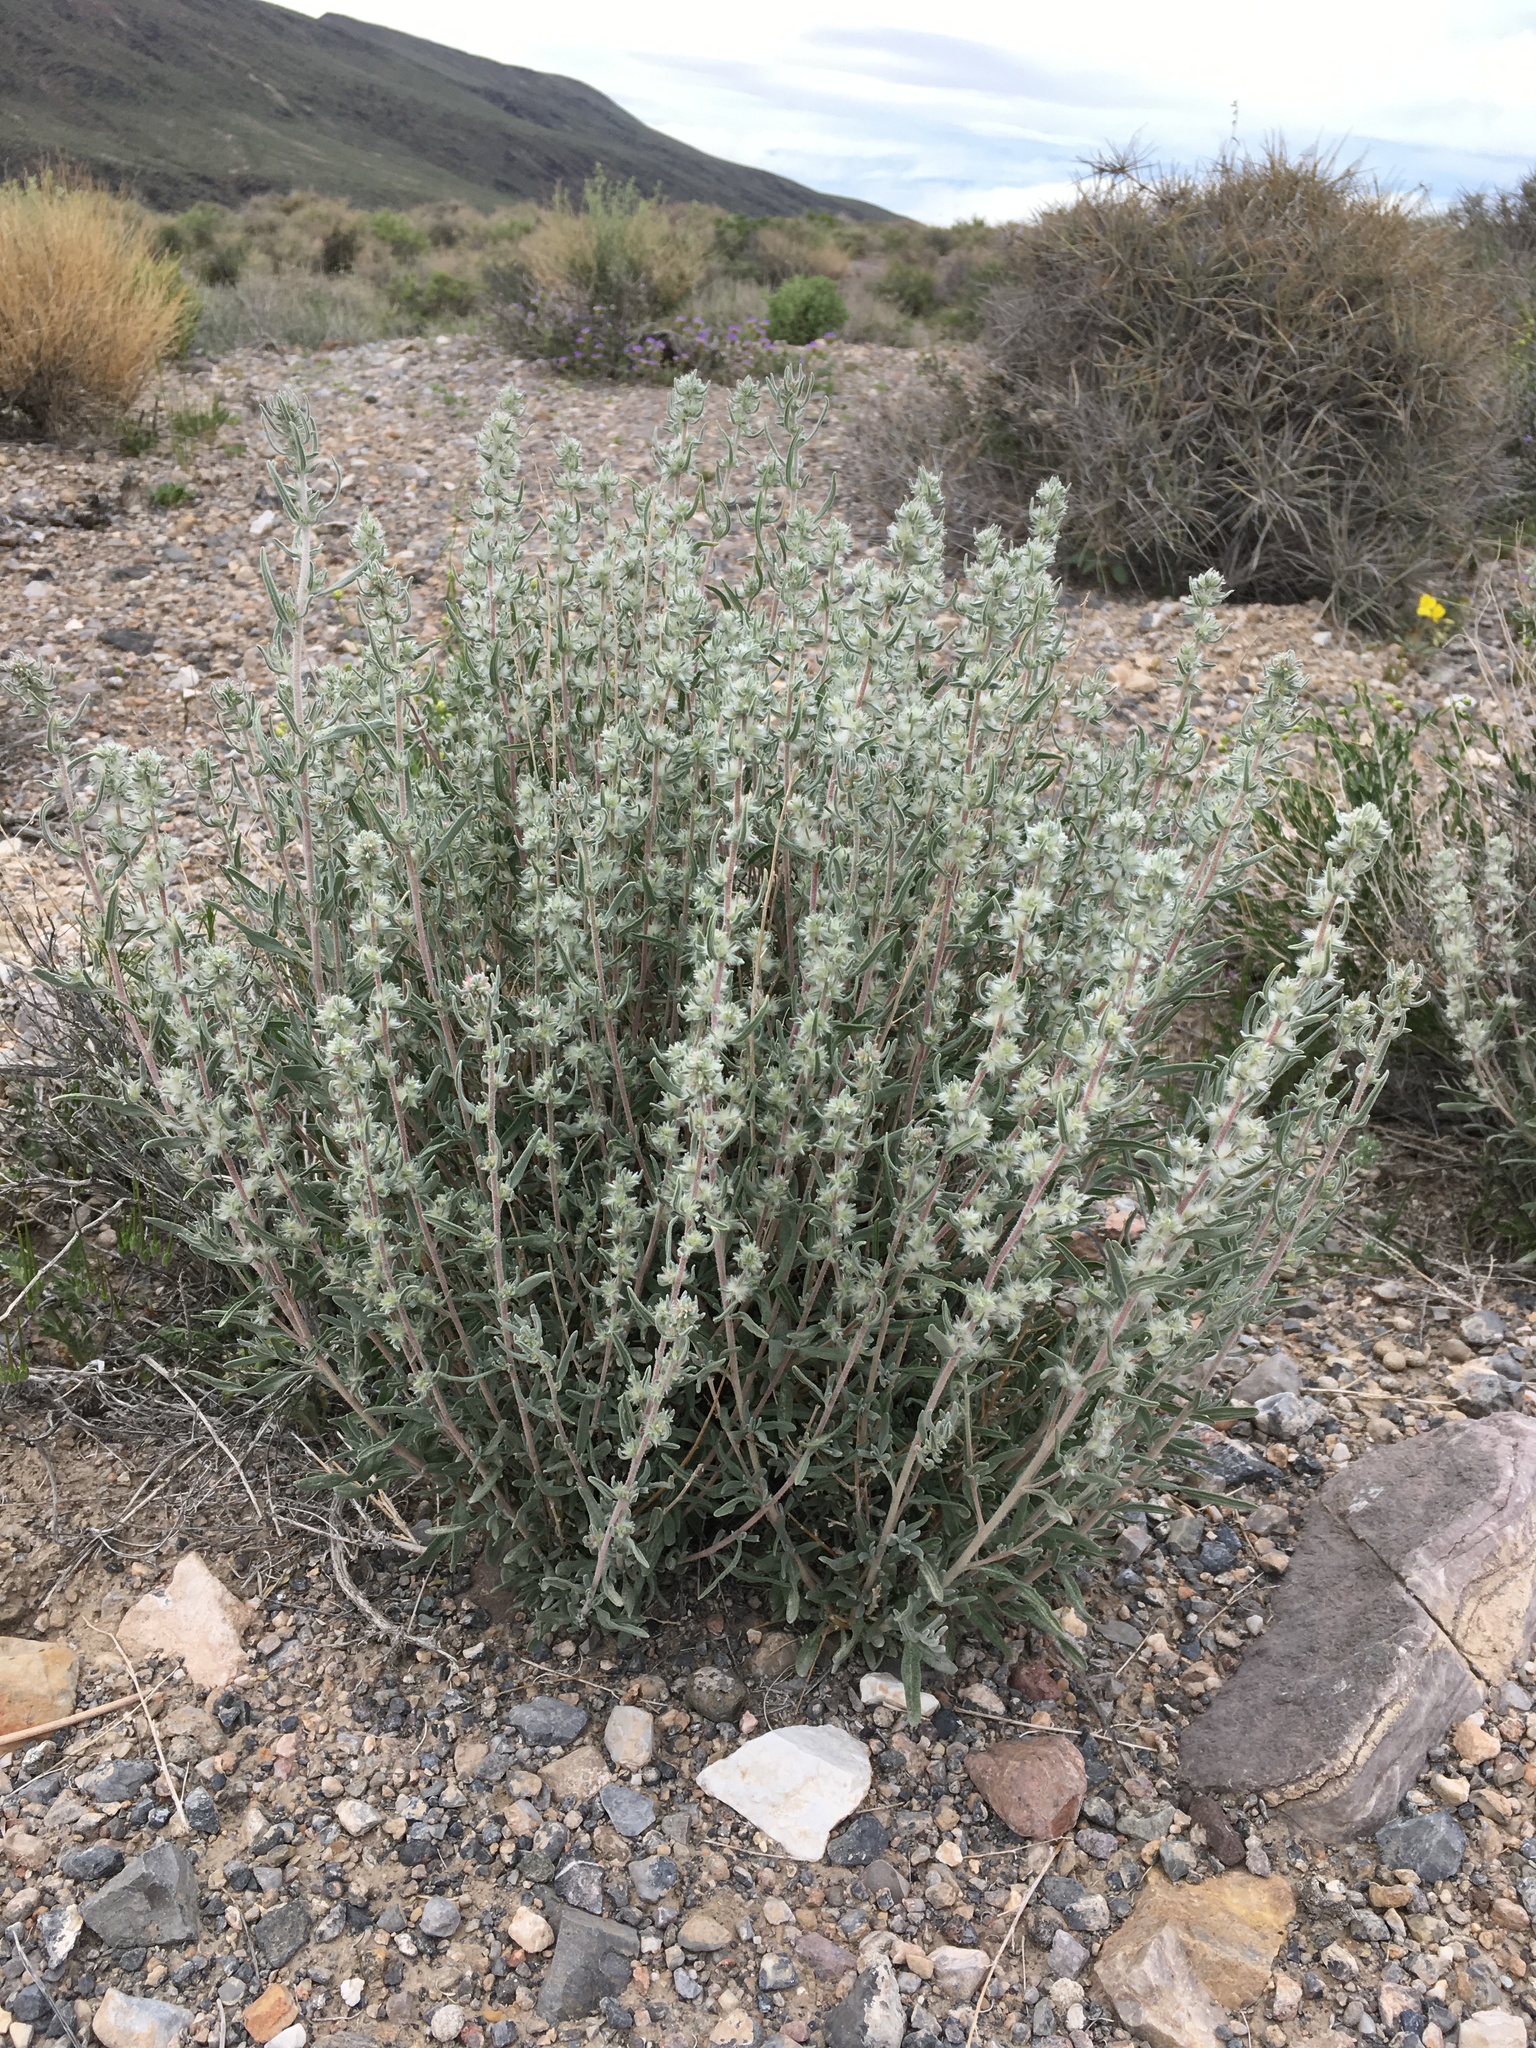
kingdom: Plantae
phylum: Tracheophyta
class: Magnoliopsida
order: Caryophyllales
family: Amaranthaceae
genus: Krascheninnikovia
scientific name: Krascheninnikovia lanata
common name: Winterfat
